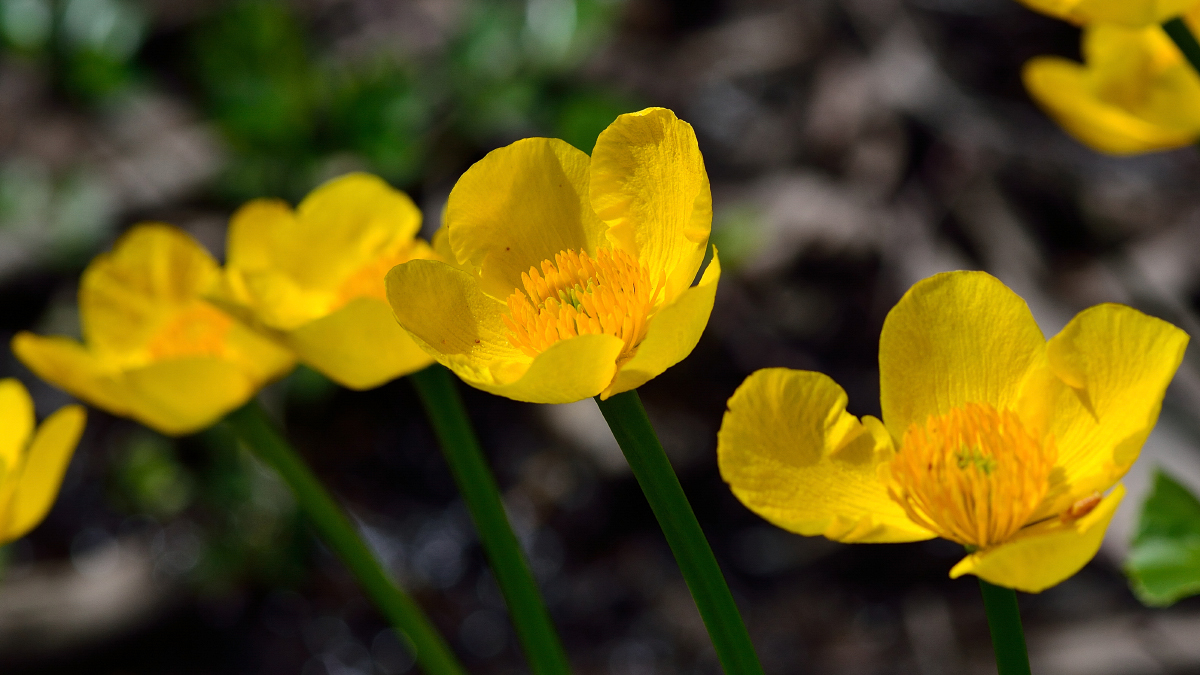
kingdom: Plantae
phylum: Tracheophyta
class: Magnoliopsida
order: Ranunculales
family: Ranunculaceae
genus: Caltha
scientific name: Caltha palustris
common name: Marsh marigold
